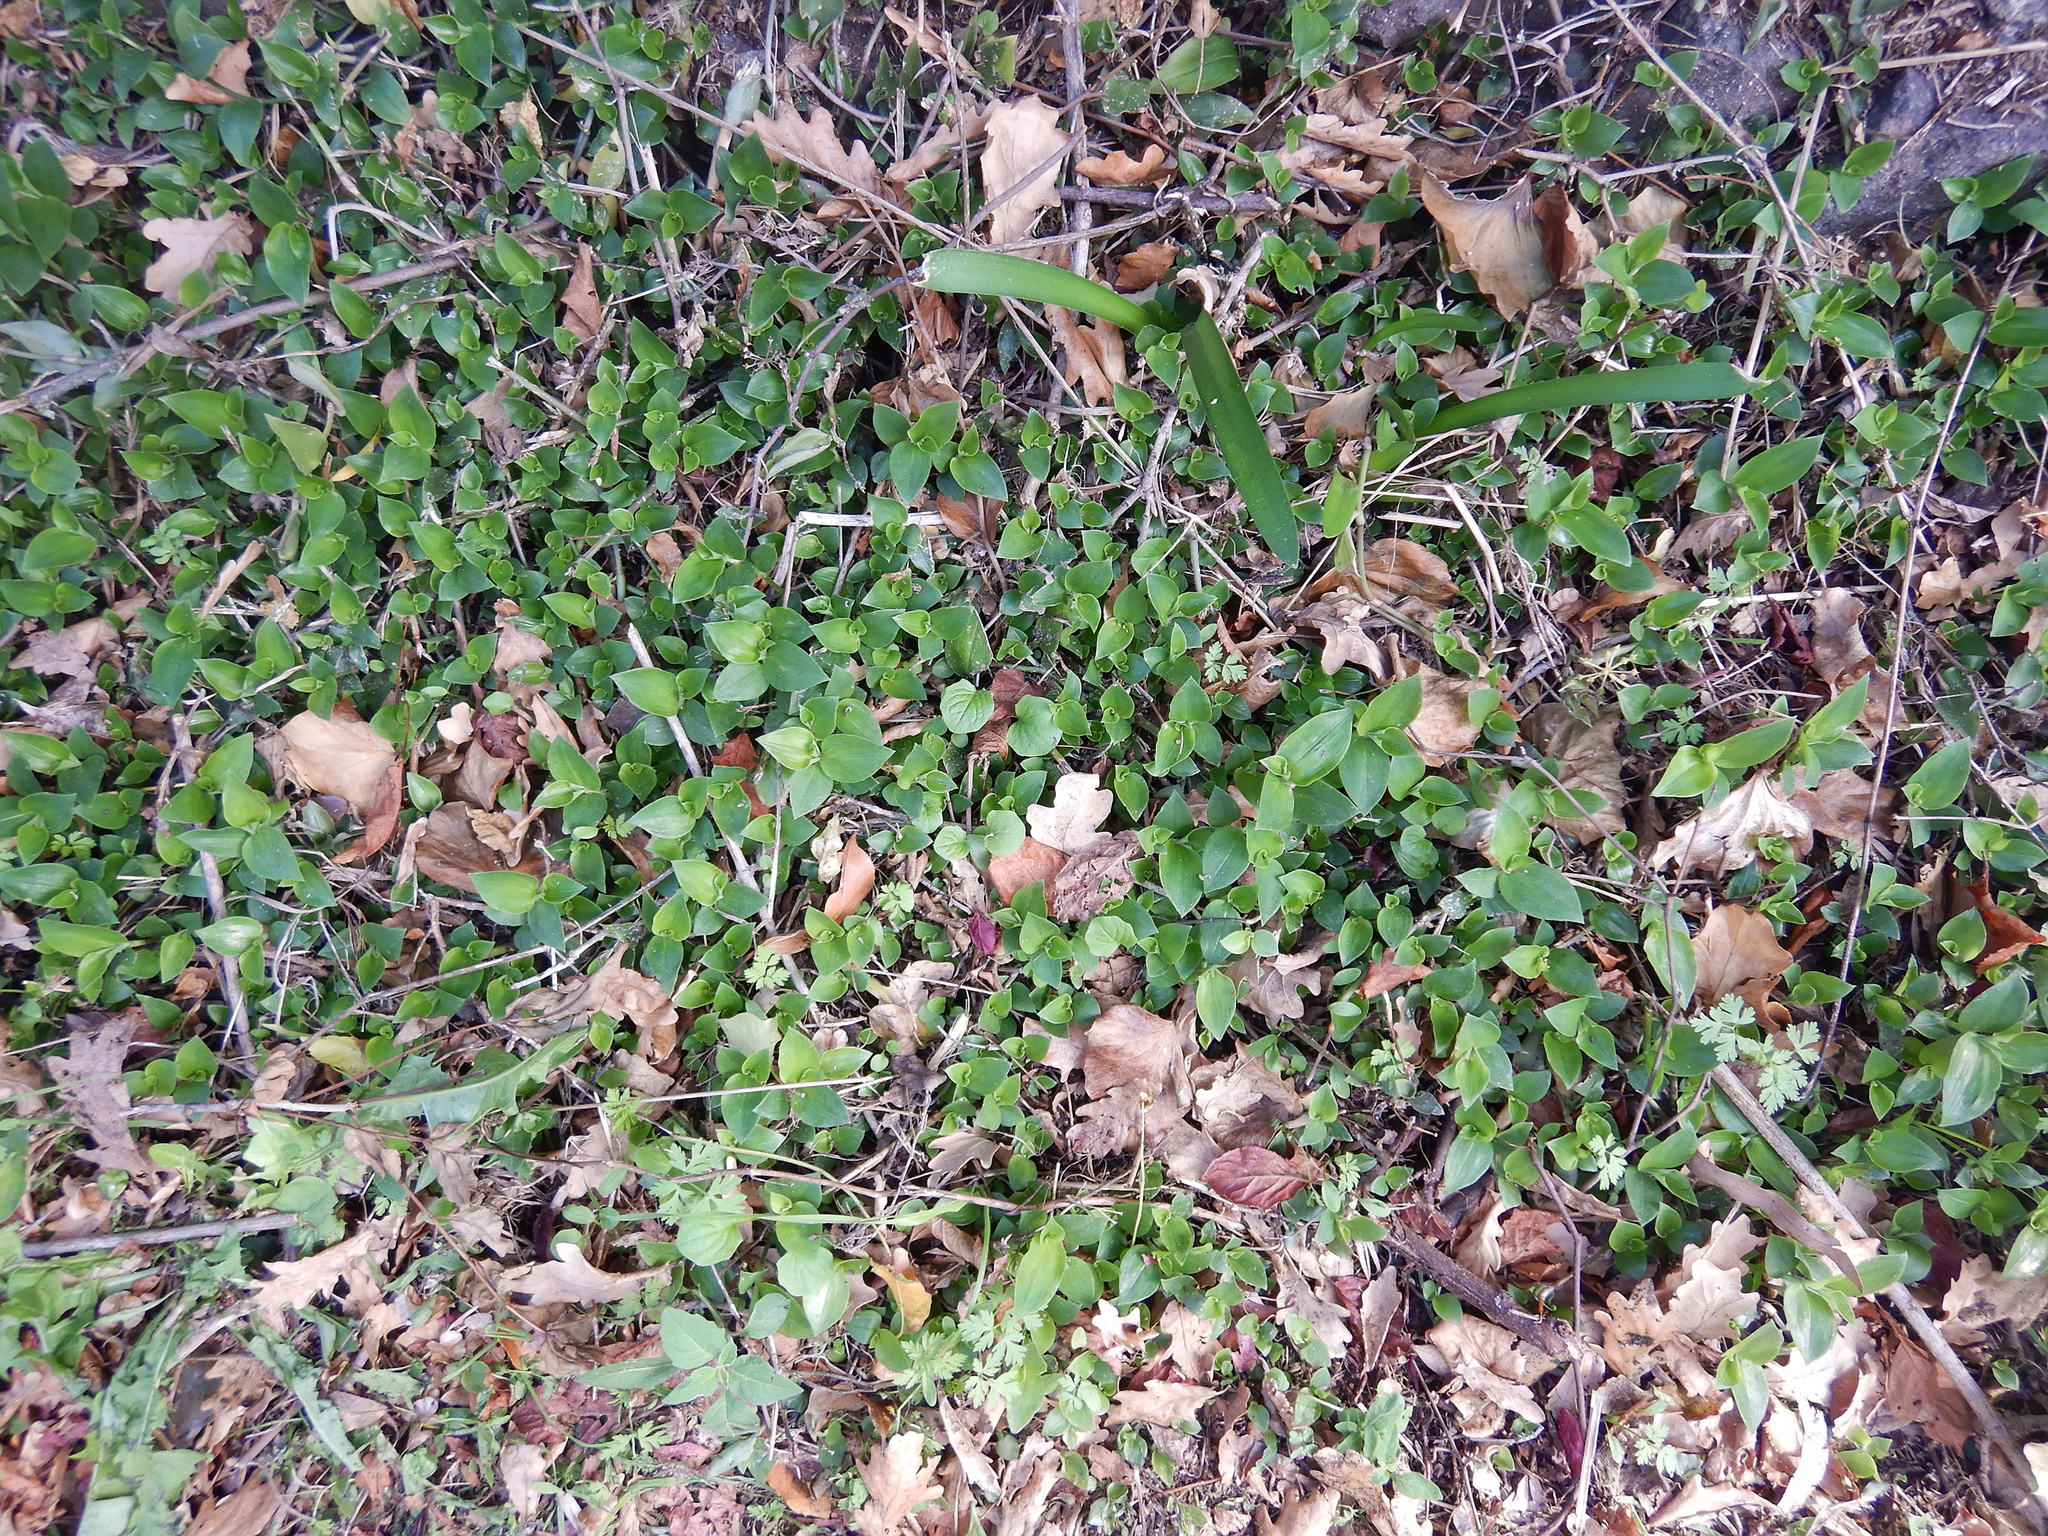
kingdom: Plantae
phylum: Tracheophyta
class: Liliopsida
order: Commelinales
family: Commelinaceae
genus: Tradescantia
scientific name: Tradescantia fluminensis
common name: Wandering-jew
